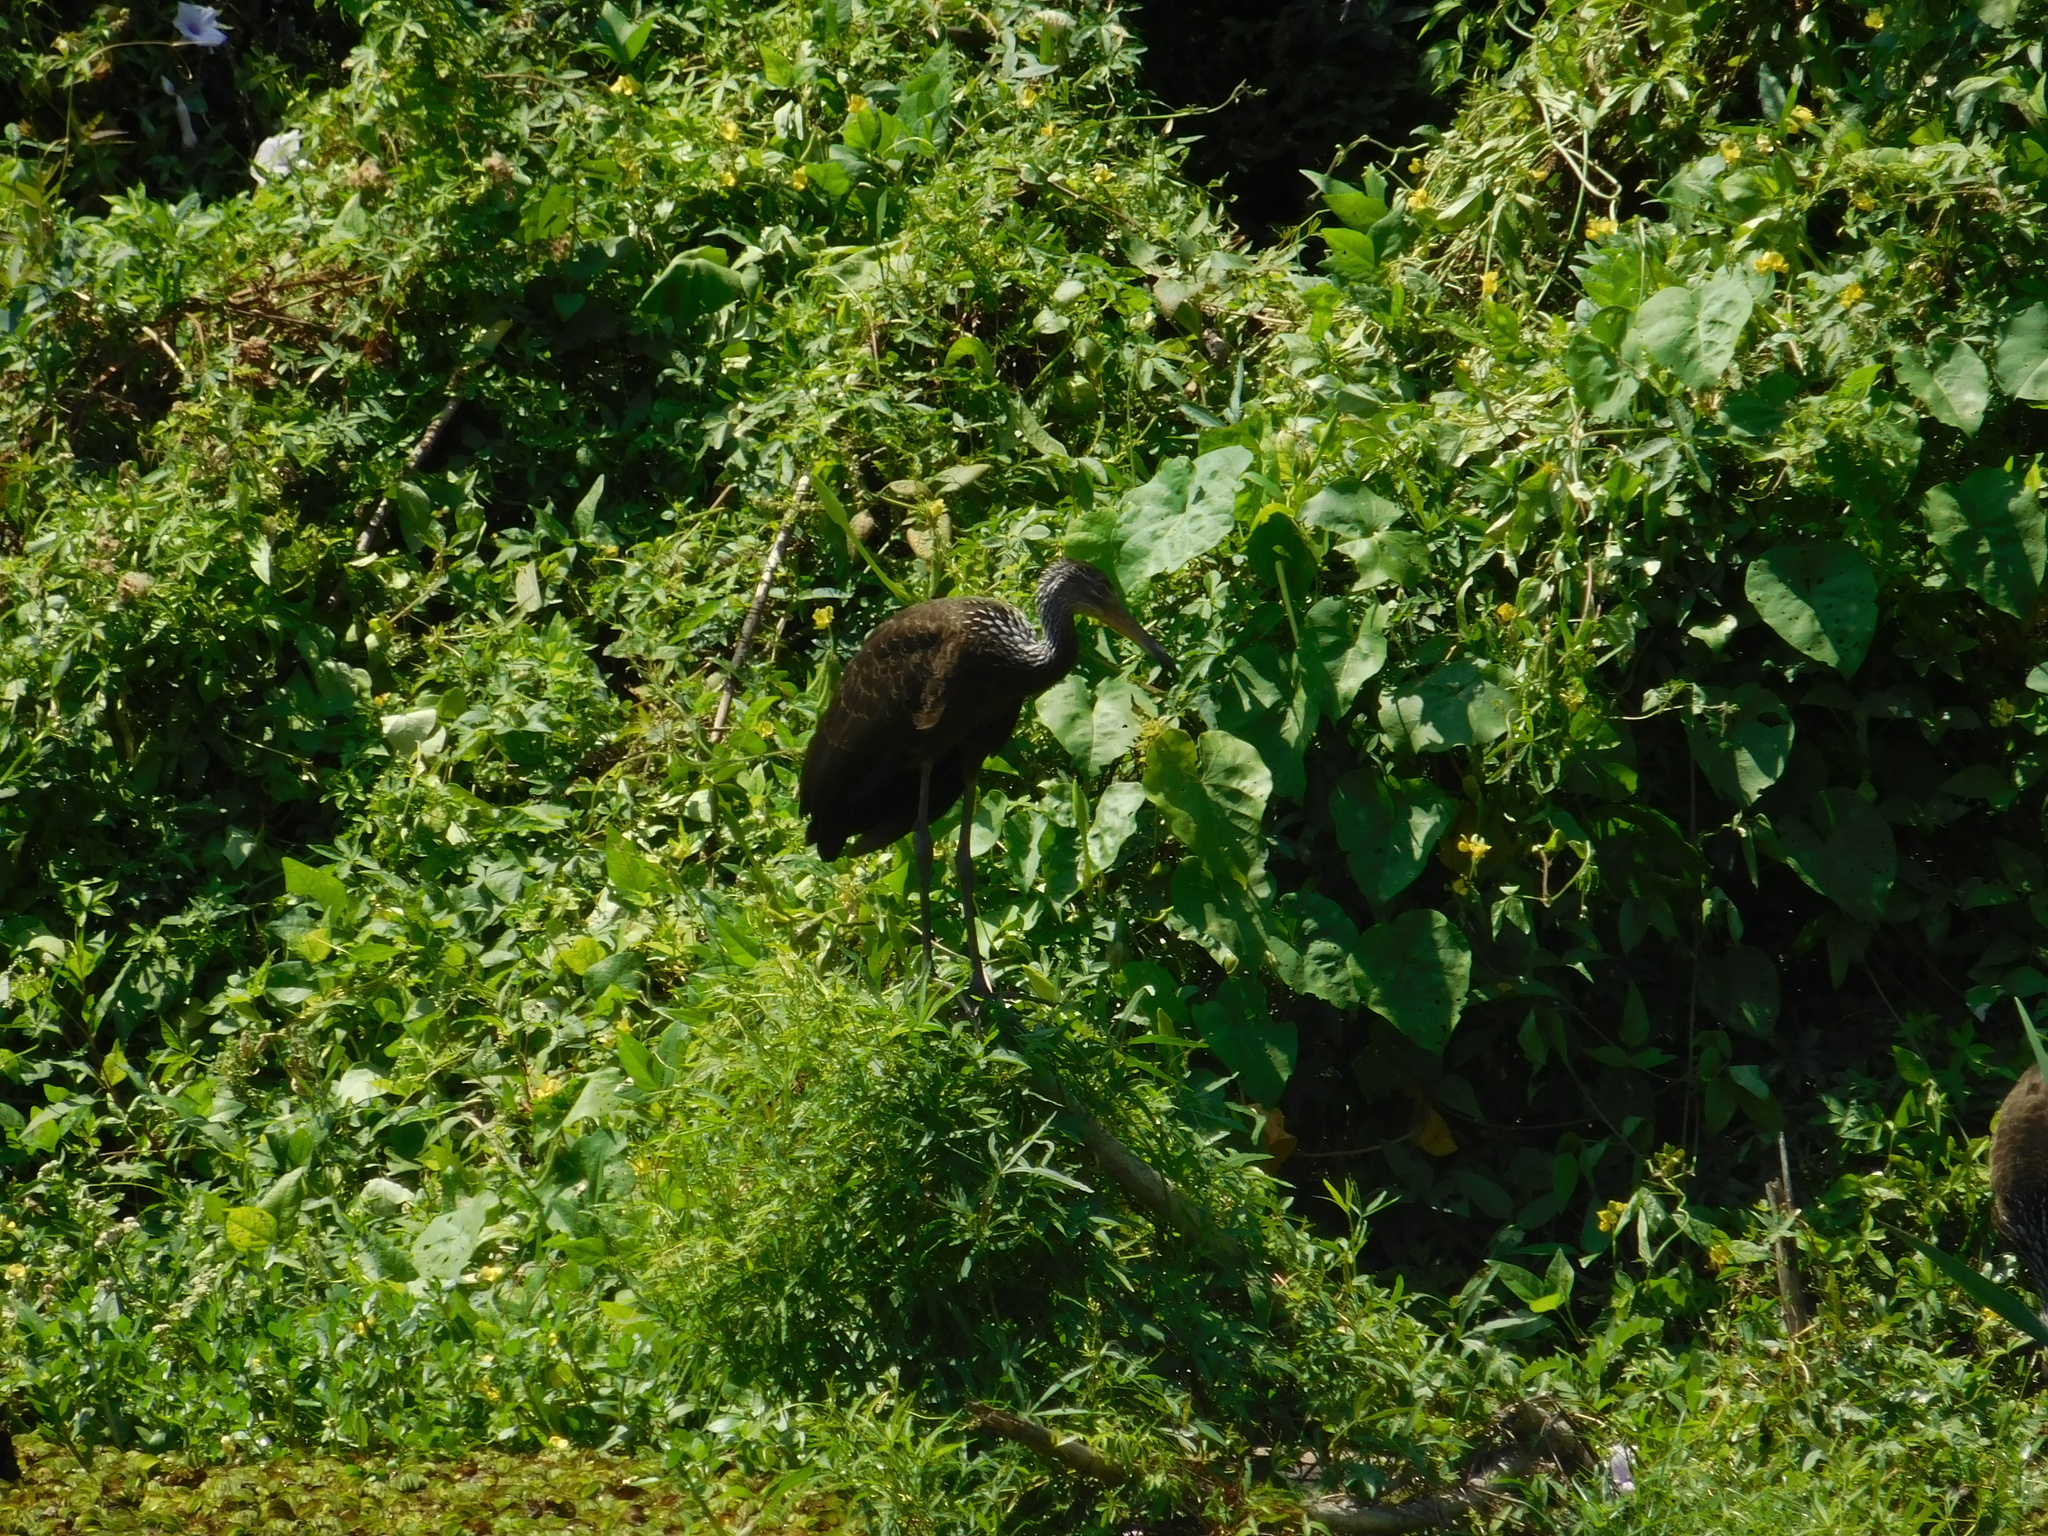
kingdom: Animalia
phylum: Chordata
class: Aves
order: Gruiformes
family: Aramidae
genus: Aramus
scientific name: Aramus guarauna
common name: Limpkin
